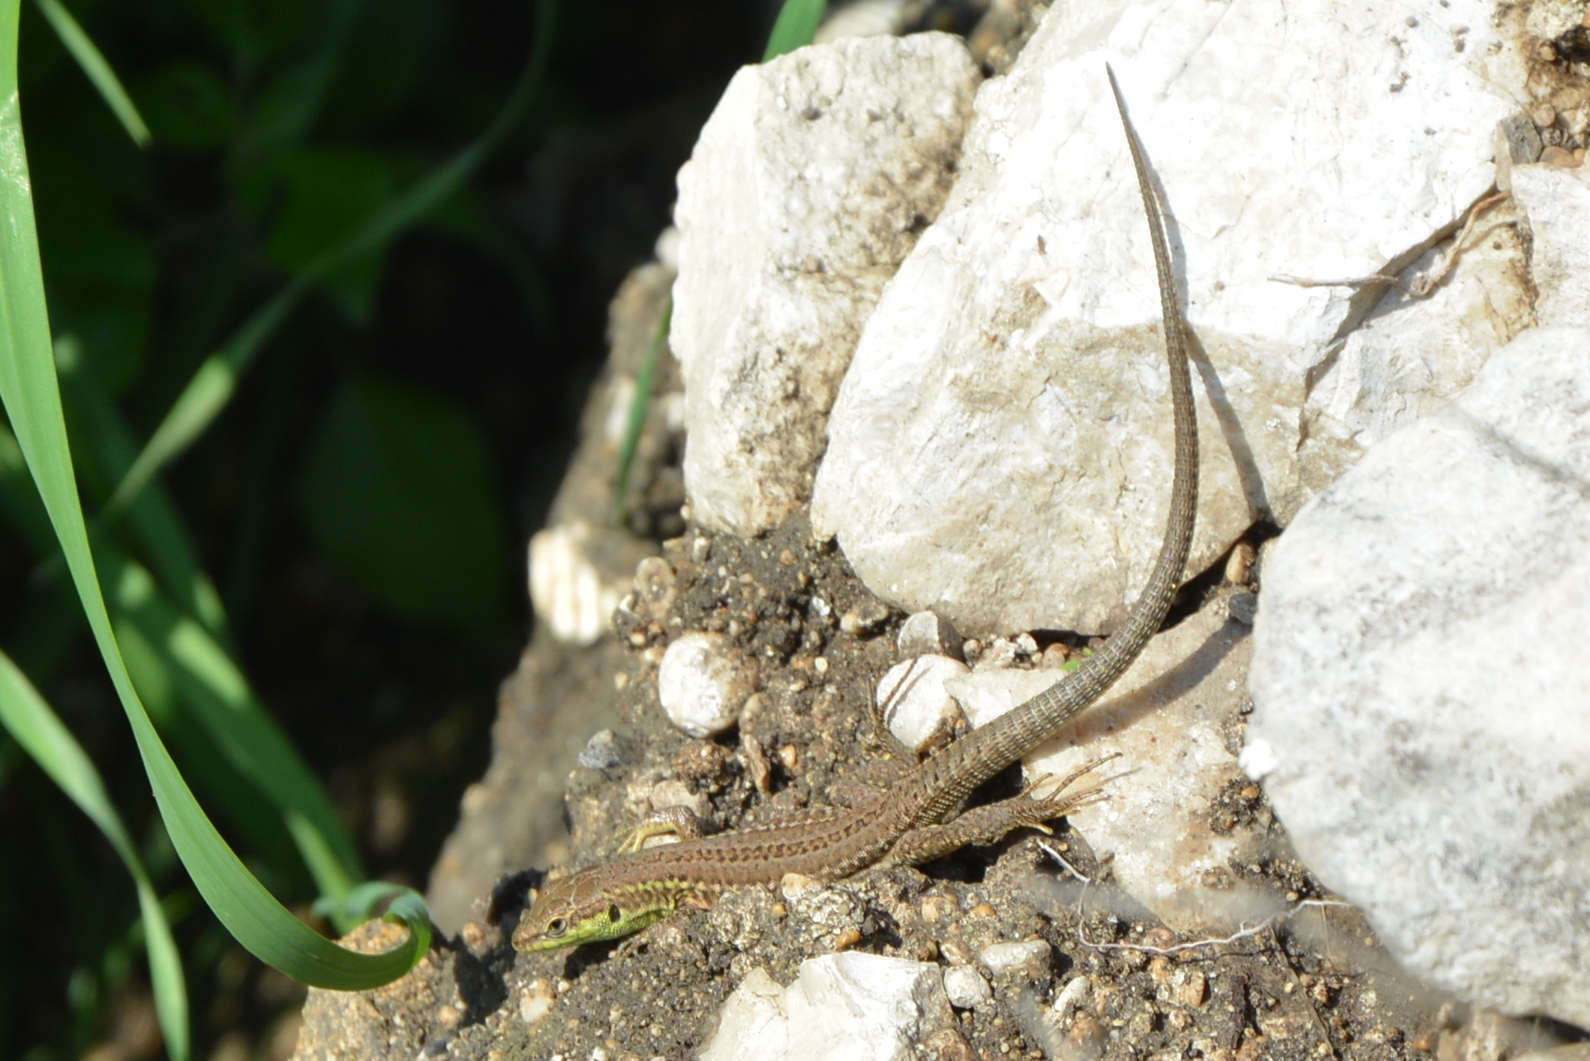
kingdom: Animalia
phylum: Chordata
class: Squamata
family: Lacertidae
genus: Podarcis
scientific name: Podarcis siculus
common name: Italian wall lizard
